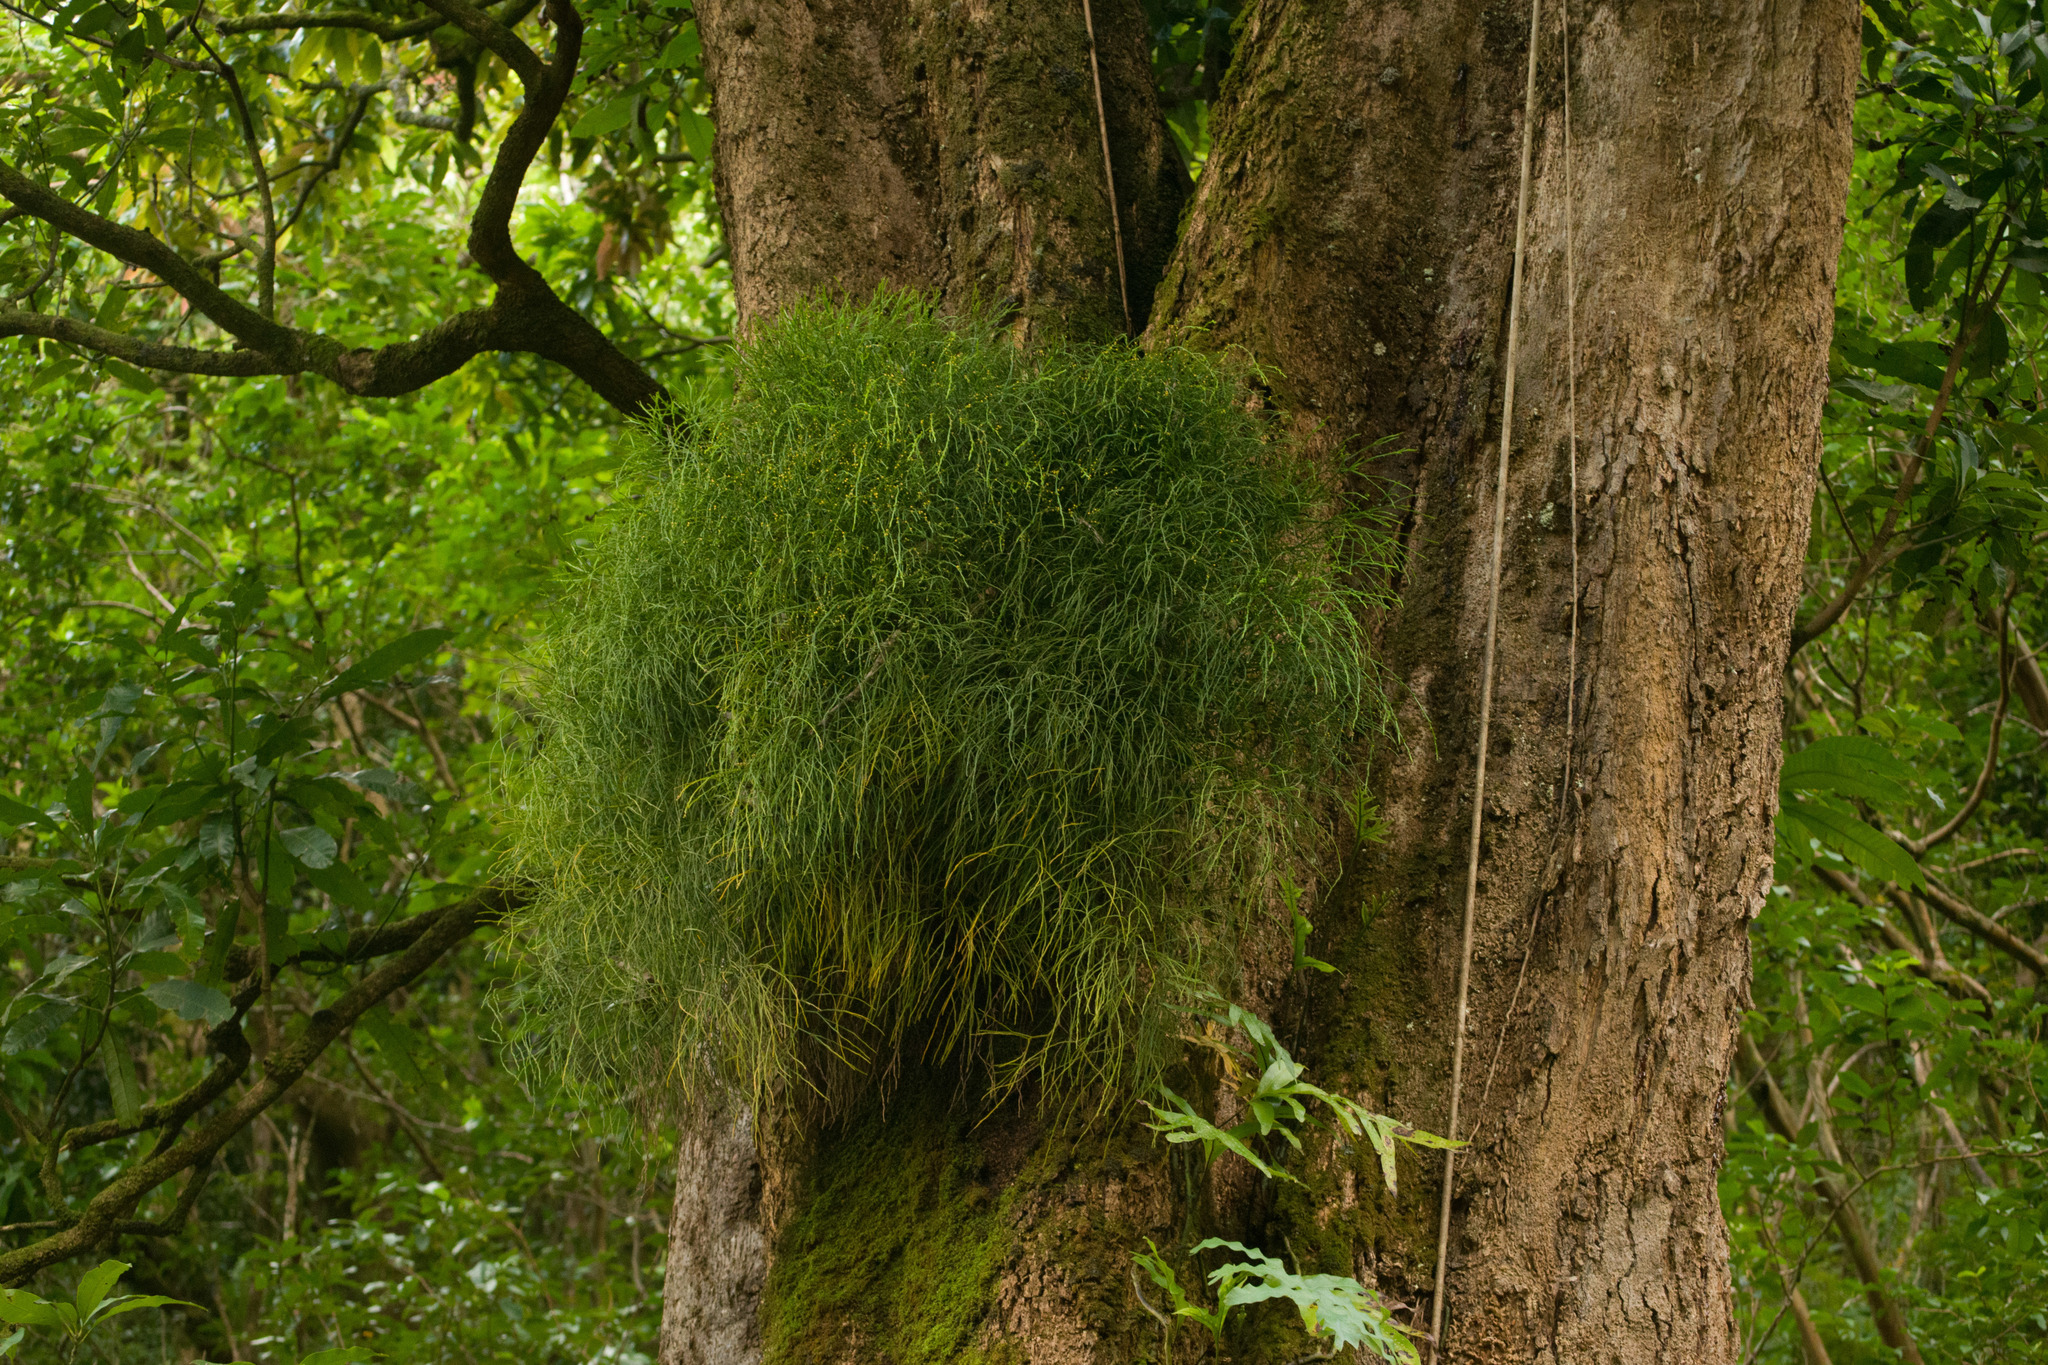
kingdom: Plantae
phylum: Tracheophyta
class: Polypodiopsida
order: Psilotales
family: Psilotaceae
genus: Psilotum
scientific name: Psilotum nudum
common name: Skeleton fork fern
